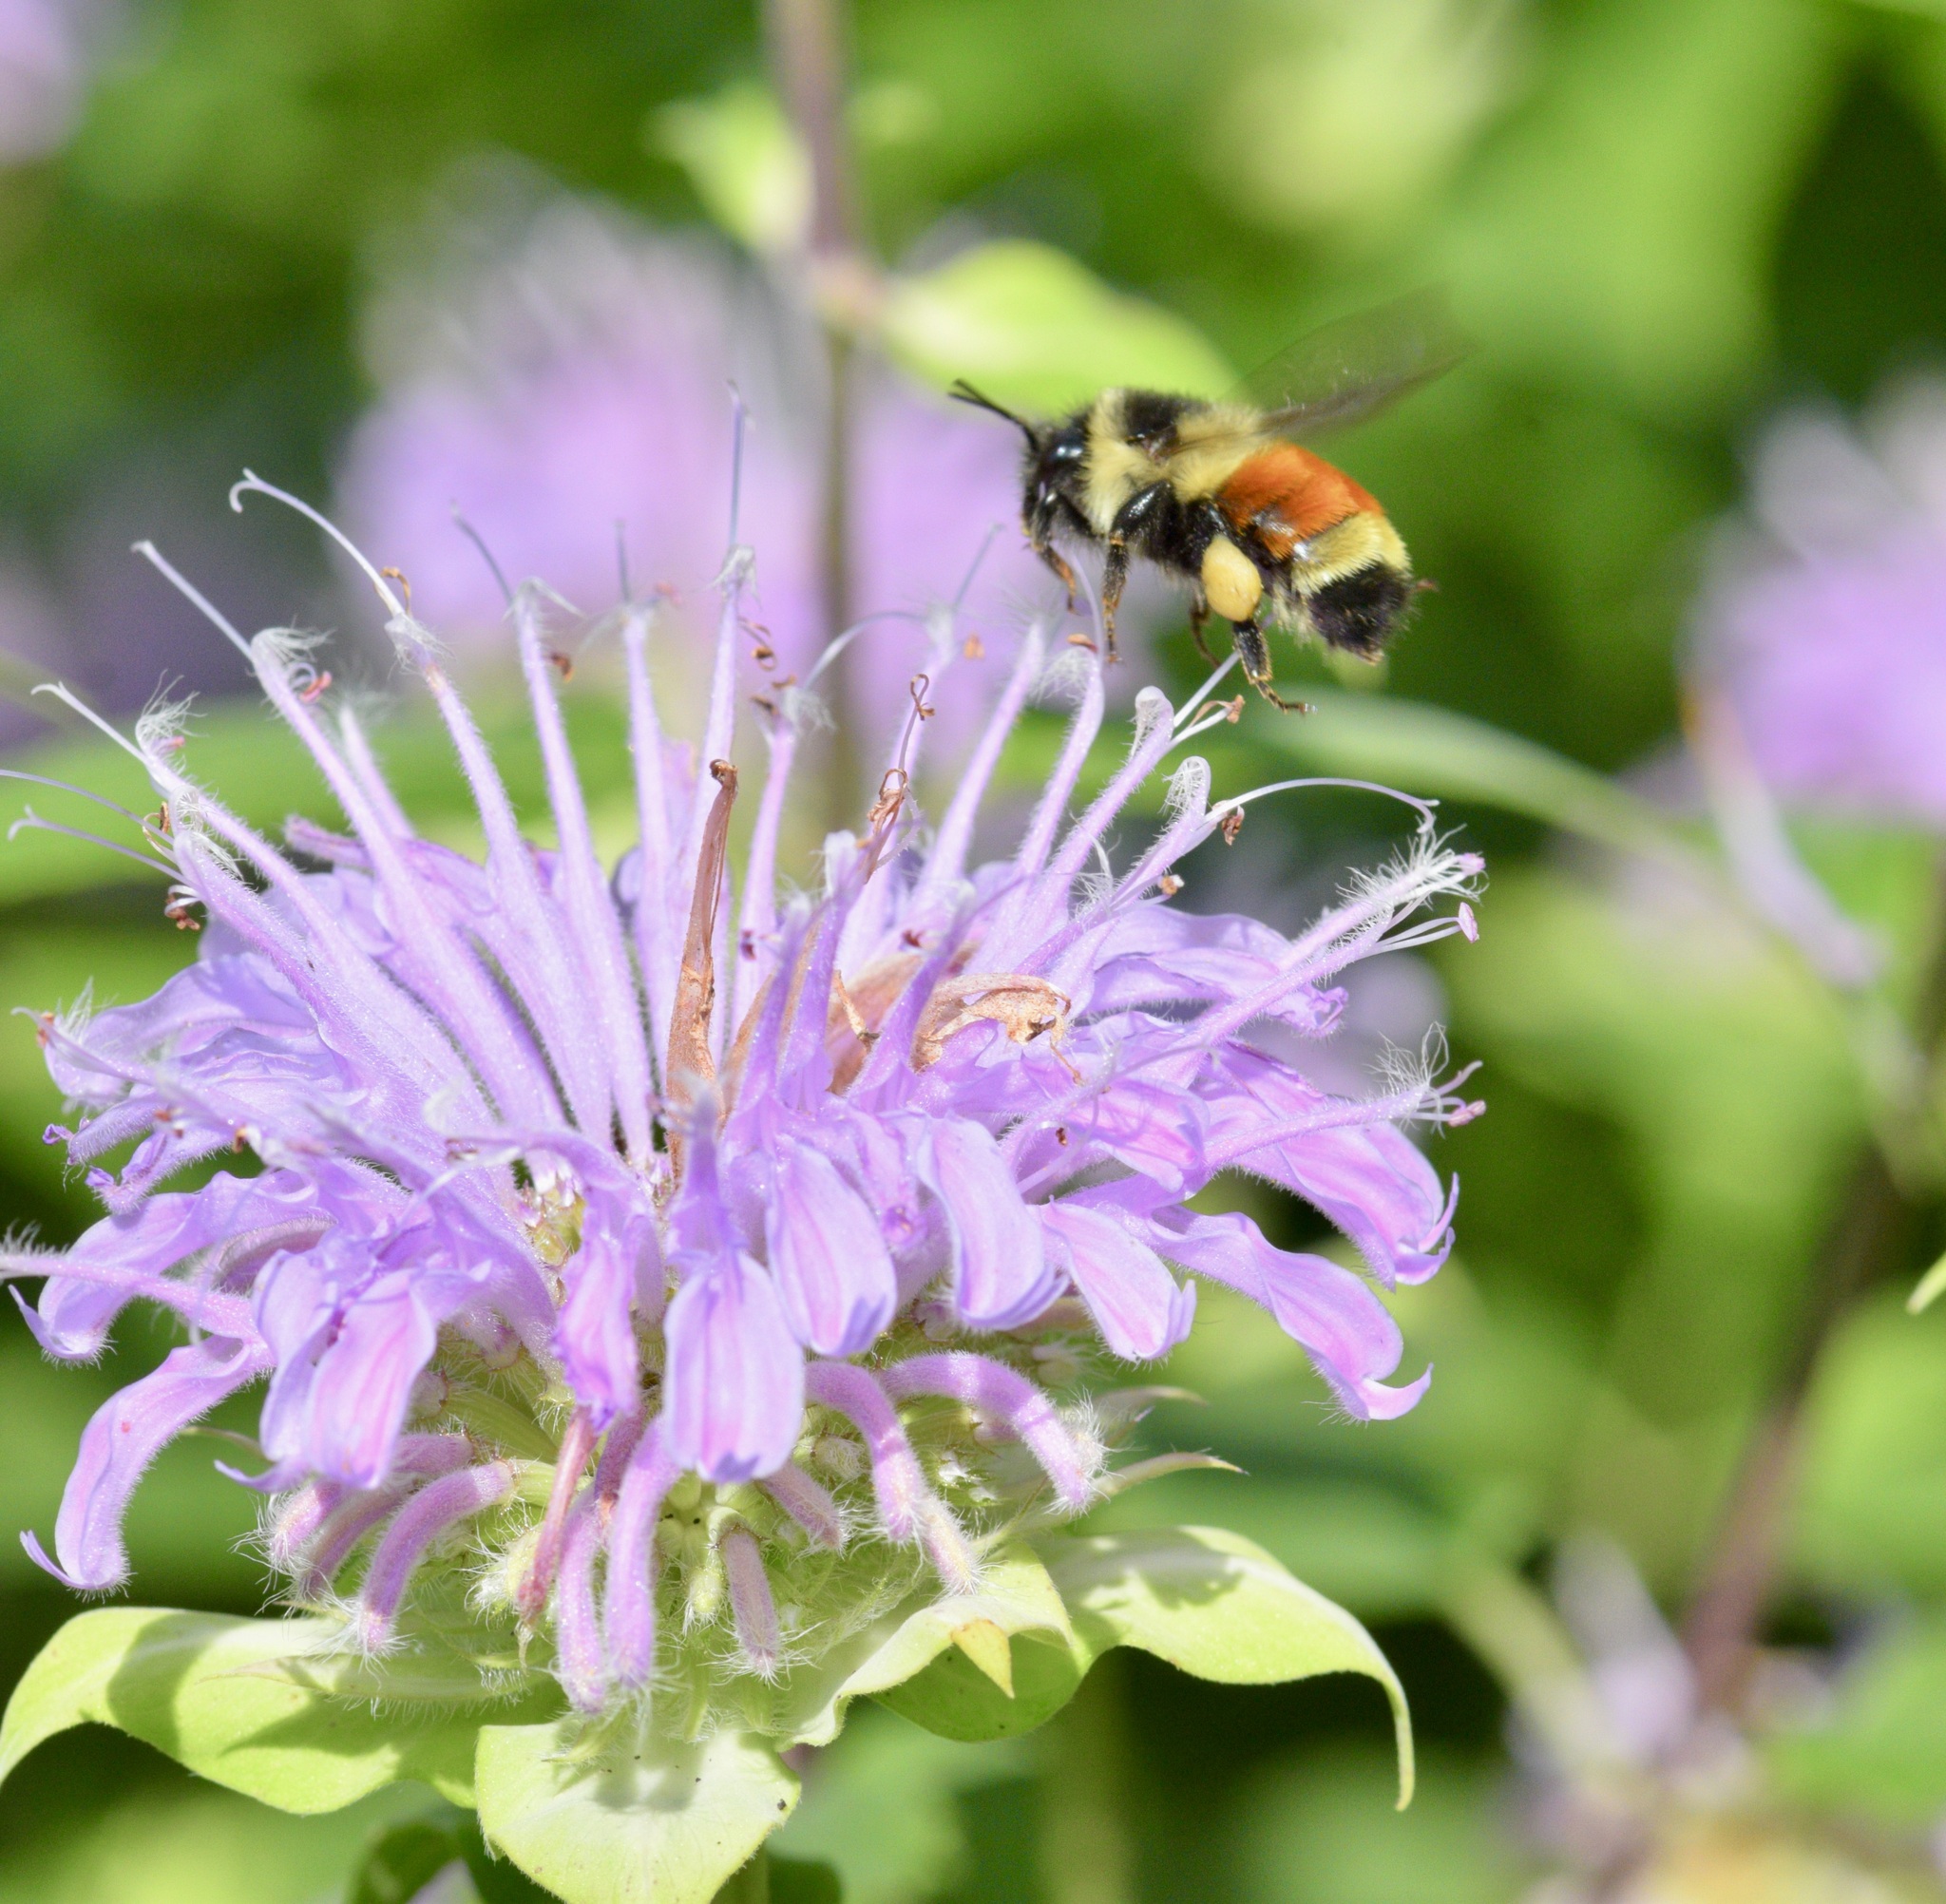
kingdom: Animalia
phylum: Arthropoda
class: Insecta
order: Hymenoptera
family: Apidae
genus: Bombus
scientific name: Bombus ternarius
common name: Tri-colored bumble bee
